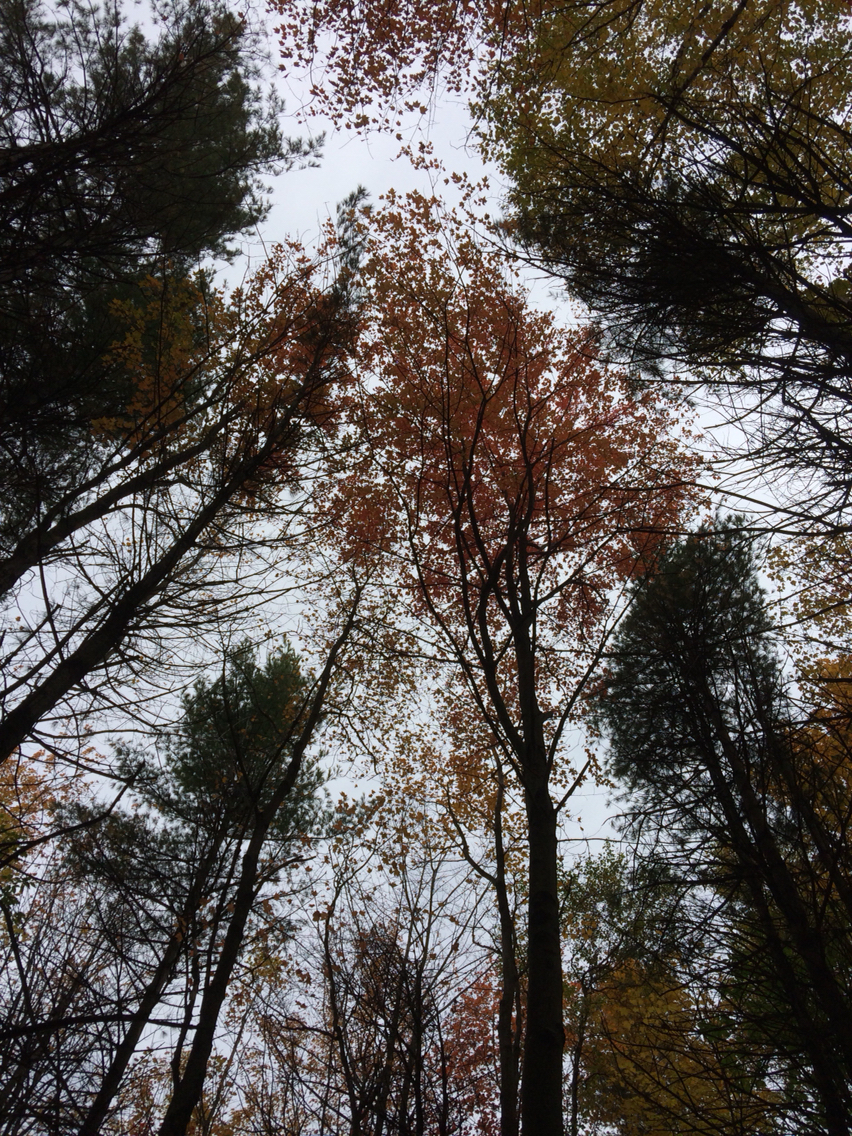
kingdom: Plantae
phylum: Tracheophyta
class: Magnoliopsida
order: Sapindales
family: Sapindaceae
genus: Acer
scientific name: Acer rubrum
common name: Red maple
